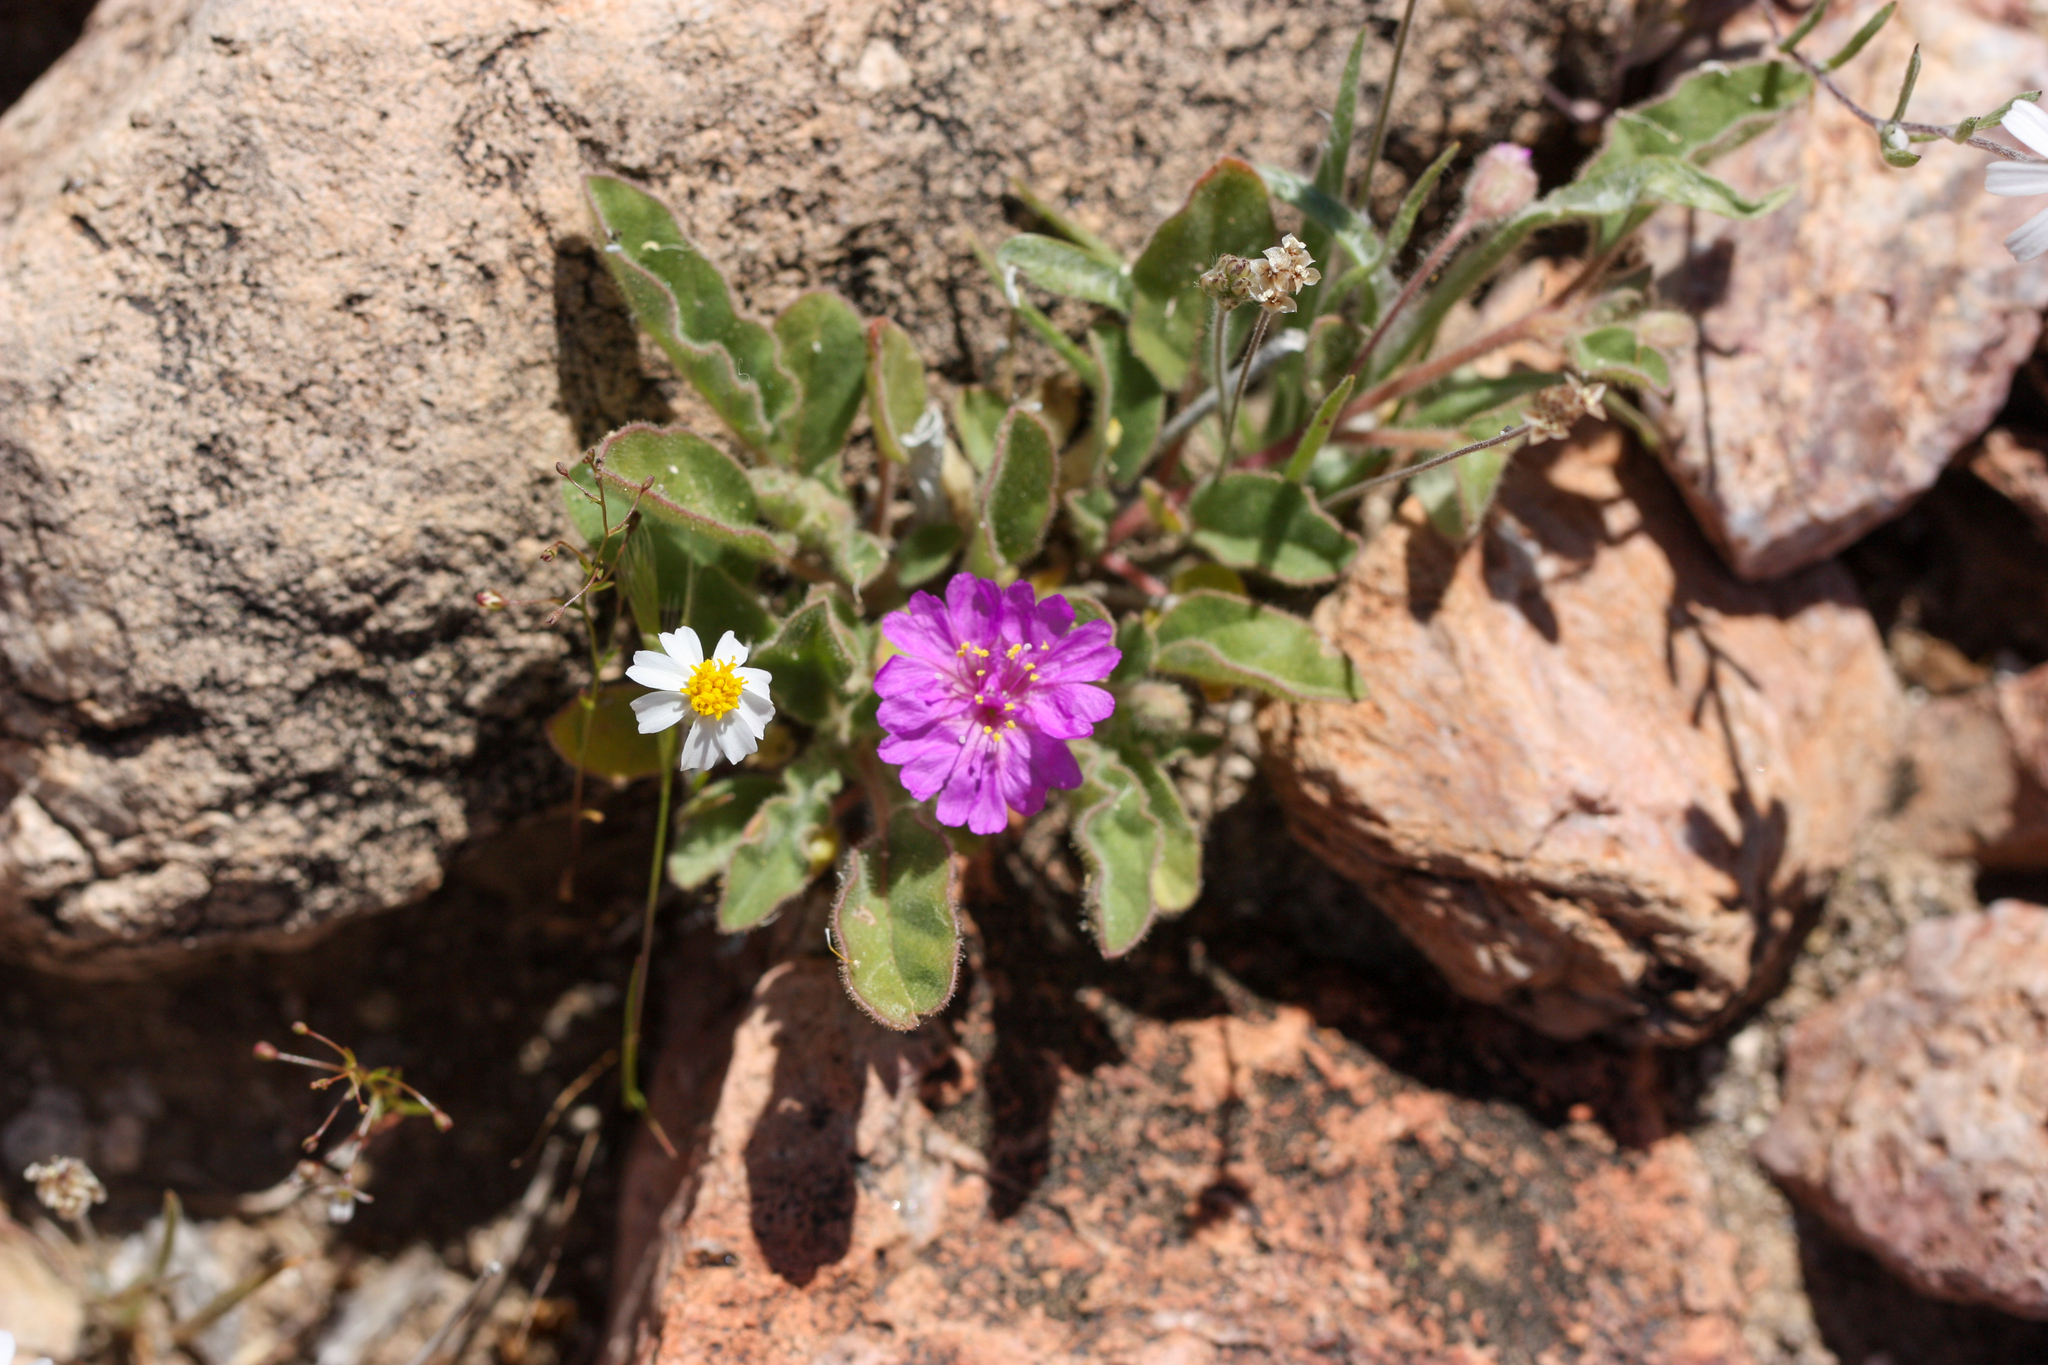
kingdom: Plantae
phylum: Tracheophyta
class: Magnoliopsida
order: Caryophyllales
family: Nyctaginaceae
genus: Allionia
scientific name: Allionia incarnata
